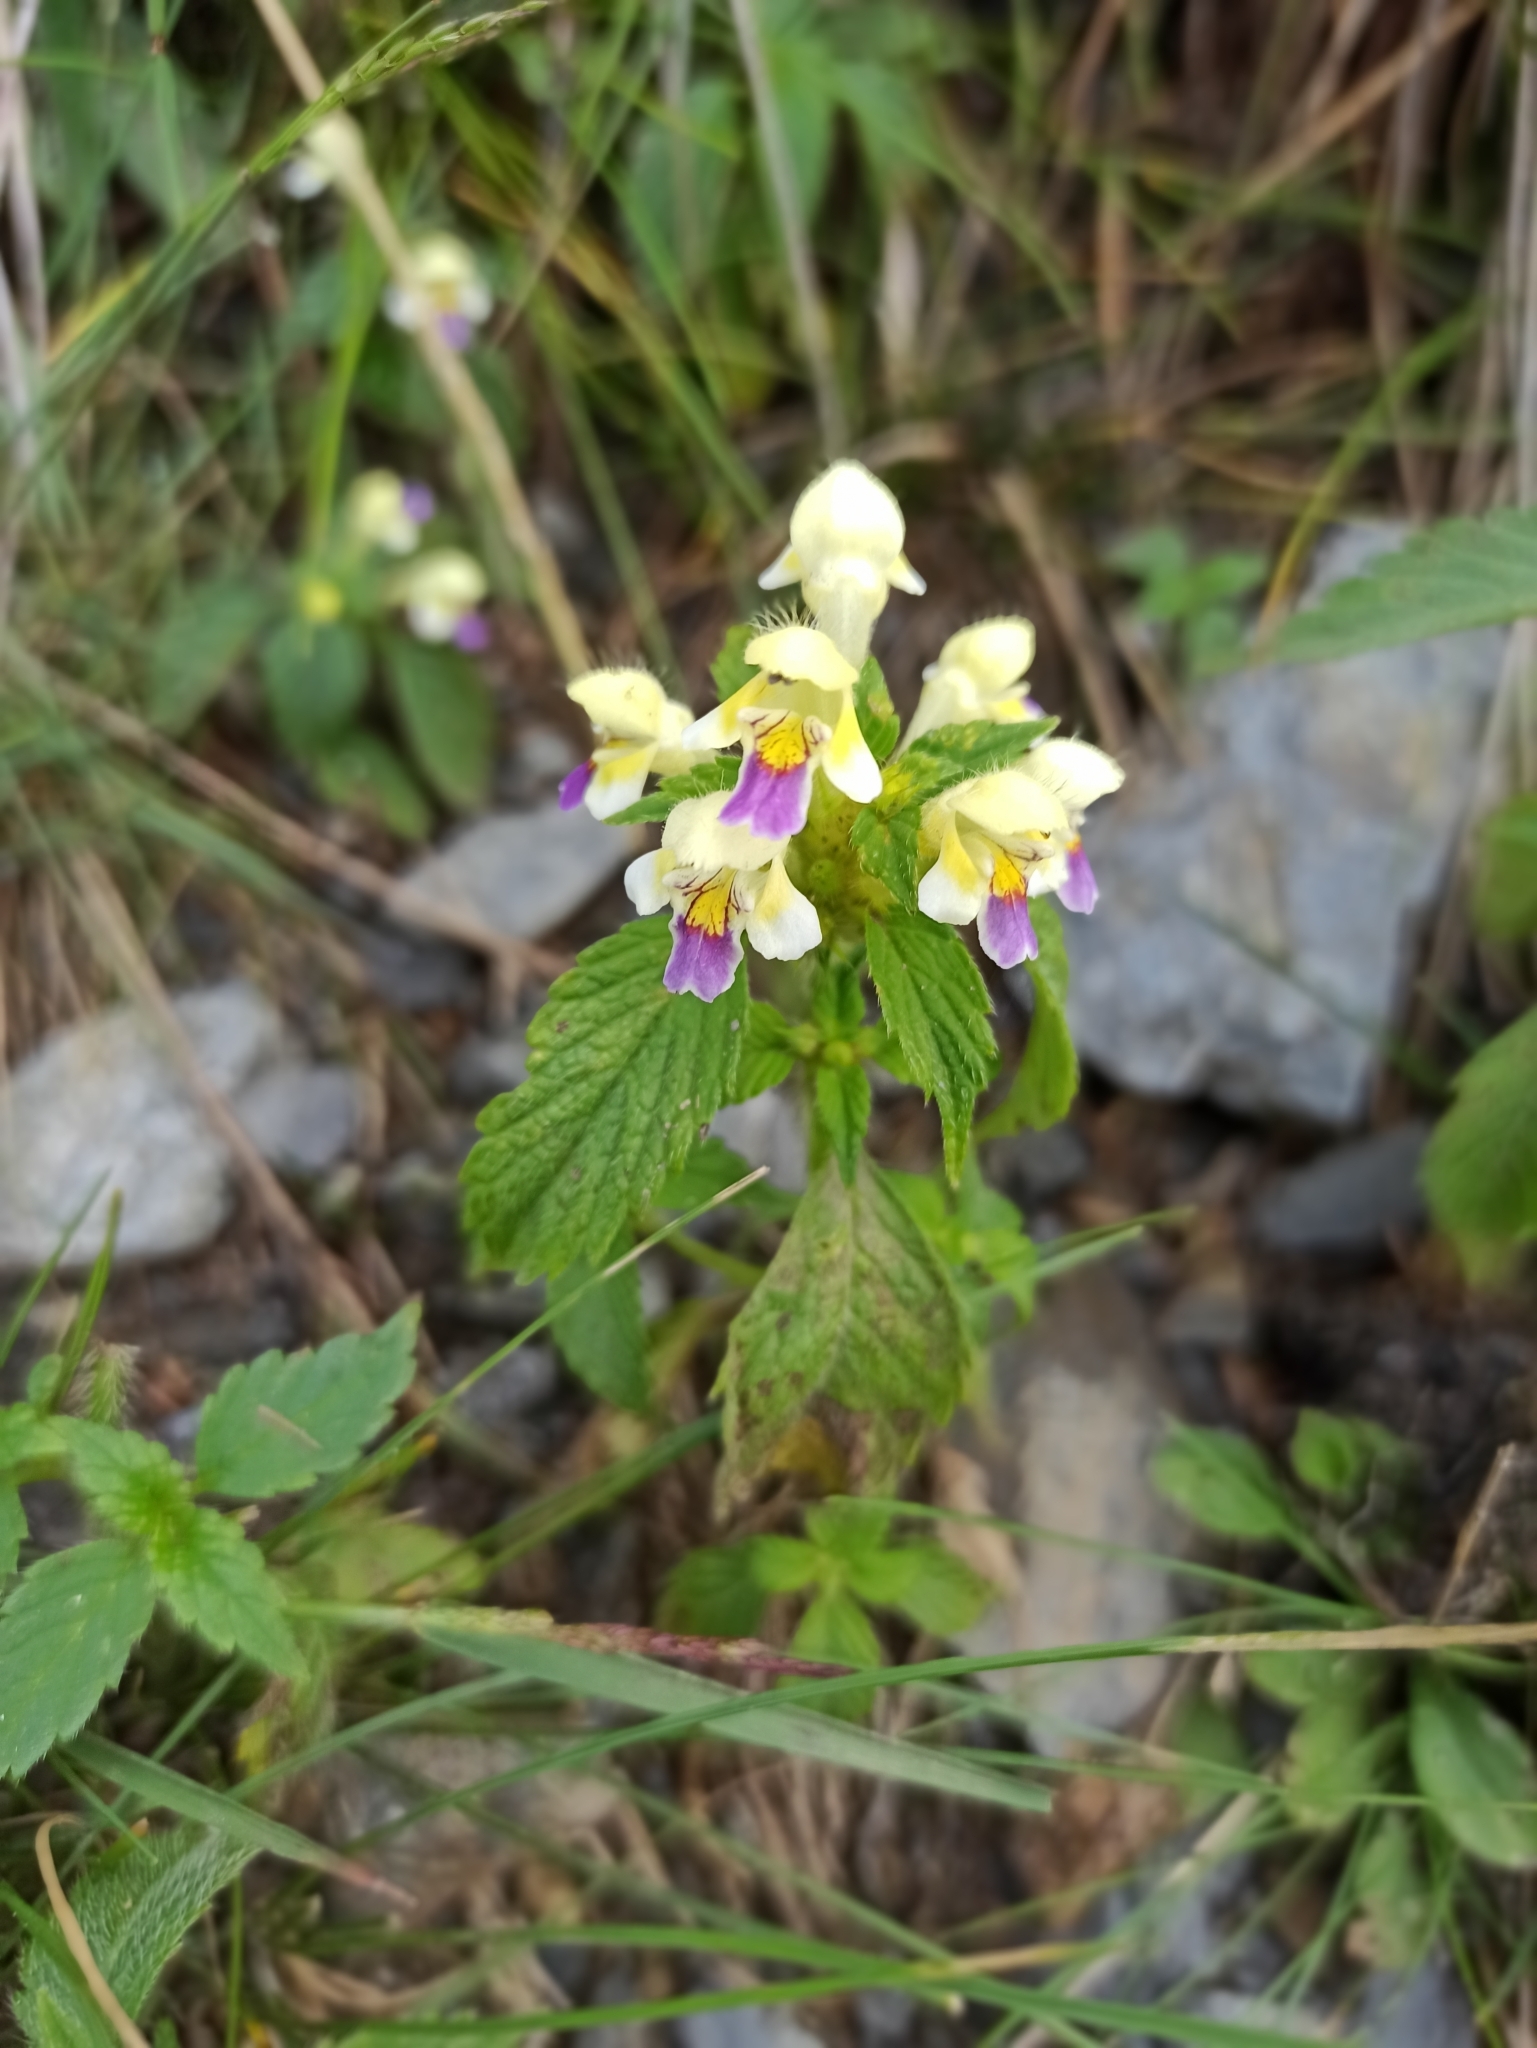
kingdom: Plantae
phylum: Tracheophyta
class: Magnoliopsida
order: Lamiales
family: Lamiaceae
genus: Galeopsis
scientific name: Galeopsis speciosa
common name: Large-flowered hemp-nettle
